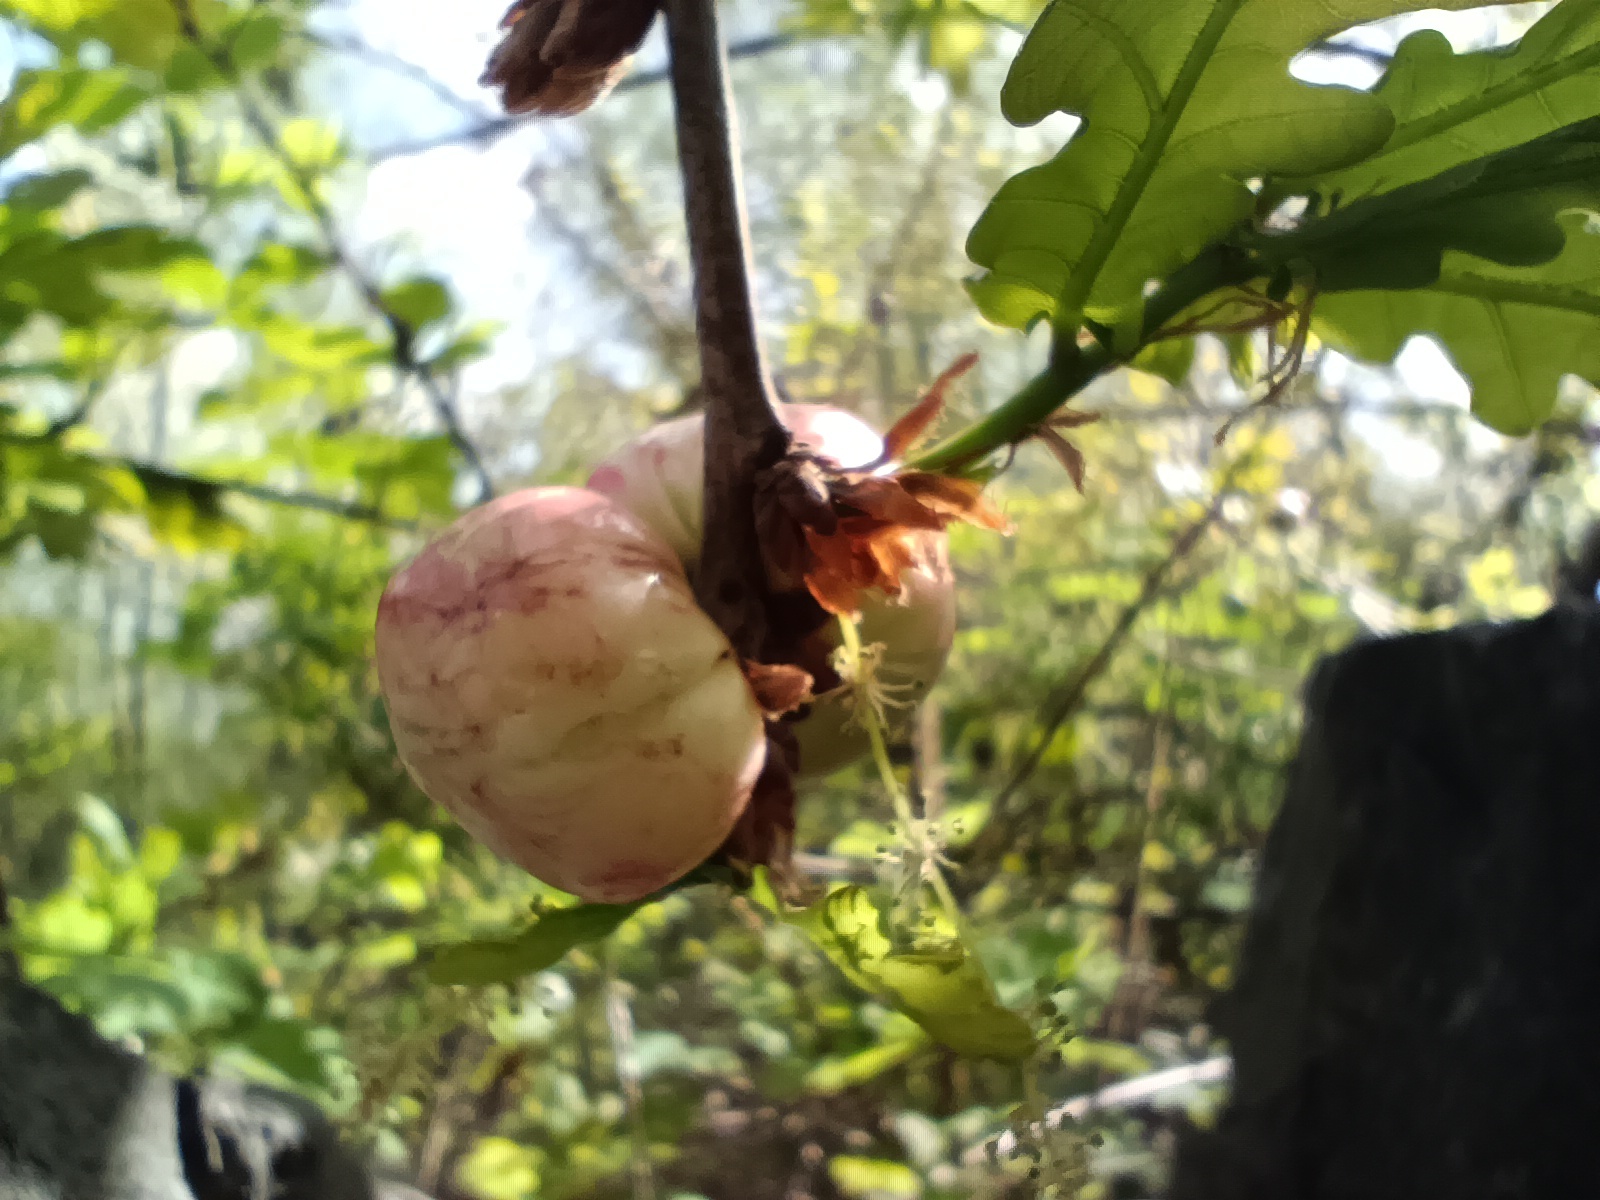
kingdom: Animalia
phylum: Arthropoda
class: Insecta
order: Hymenoptera
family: Cynipidae
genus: Biorhiza
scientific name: Biorhiza pallida
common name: Oak apple
